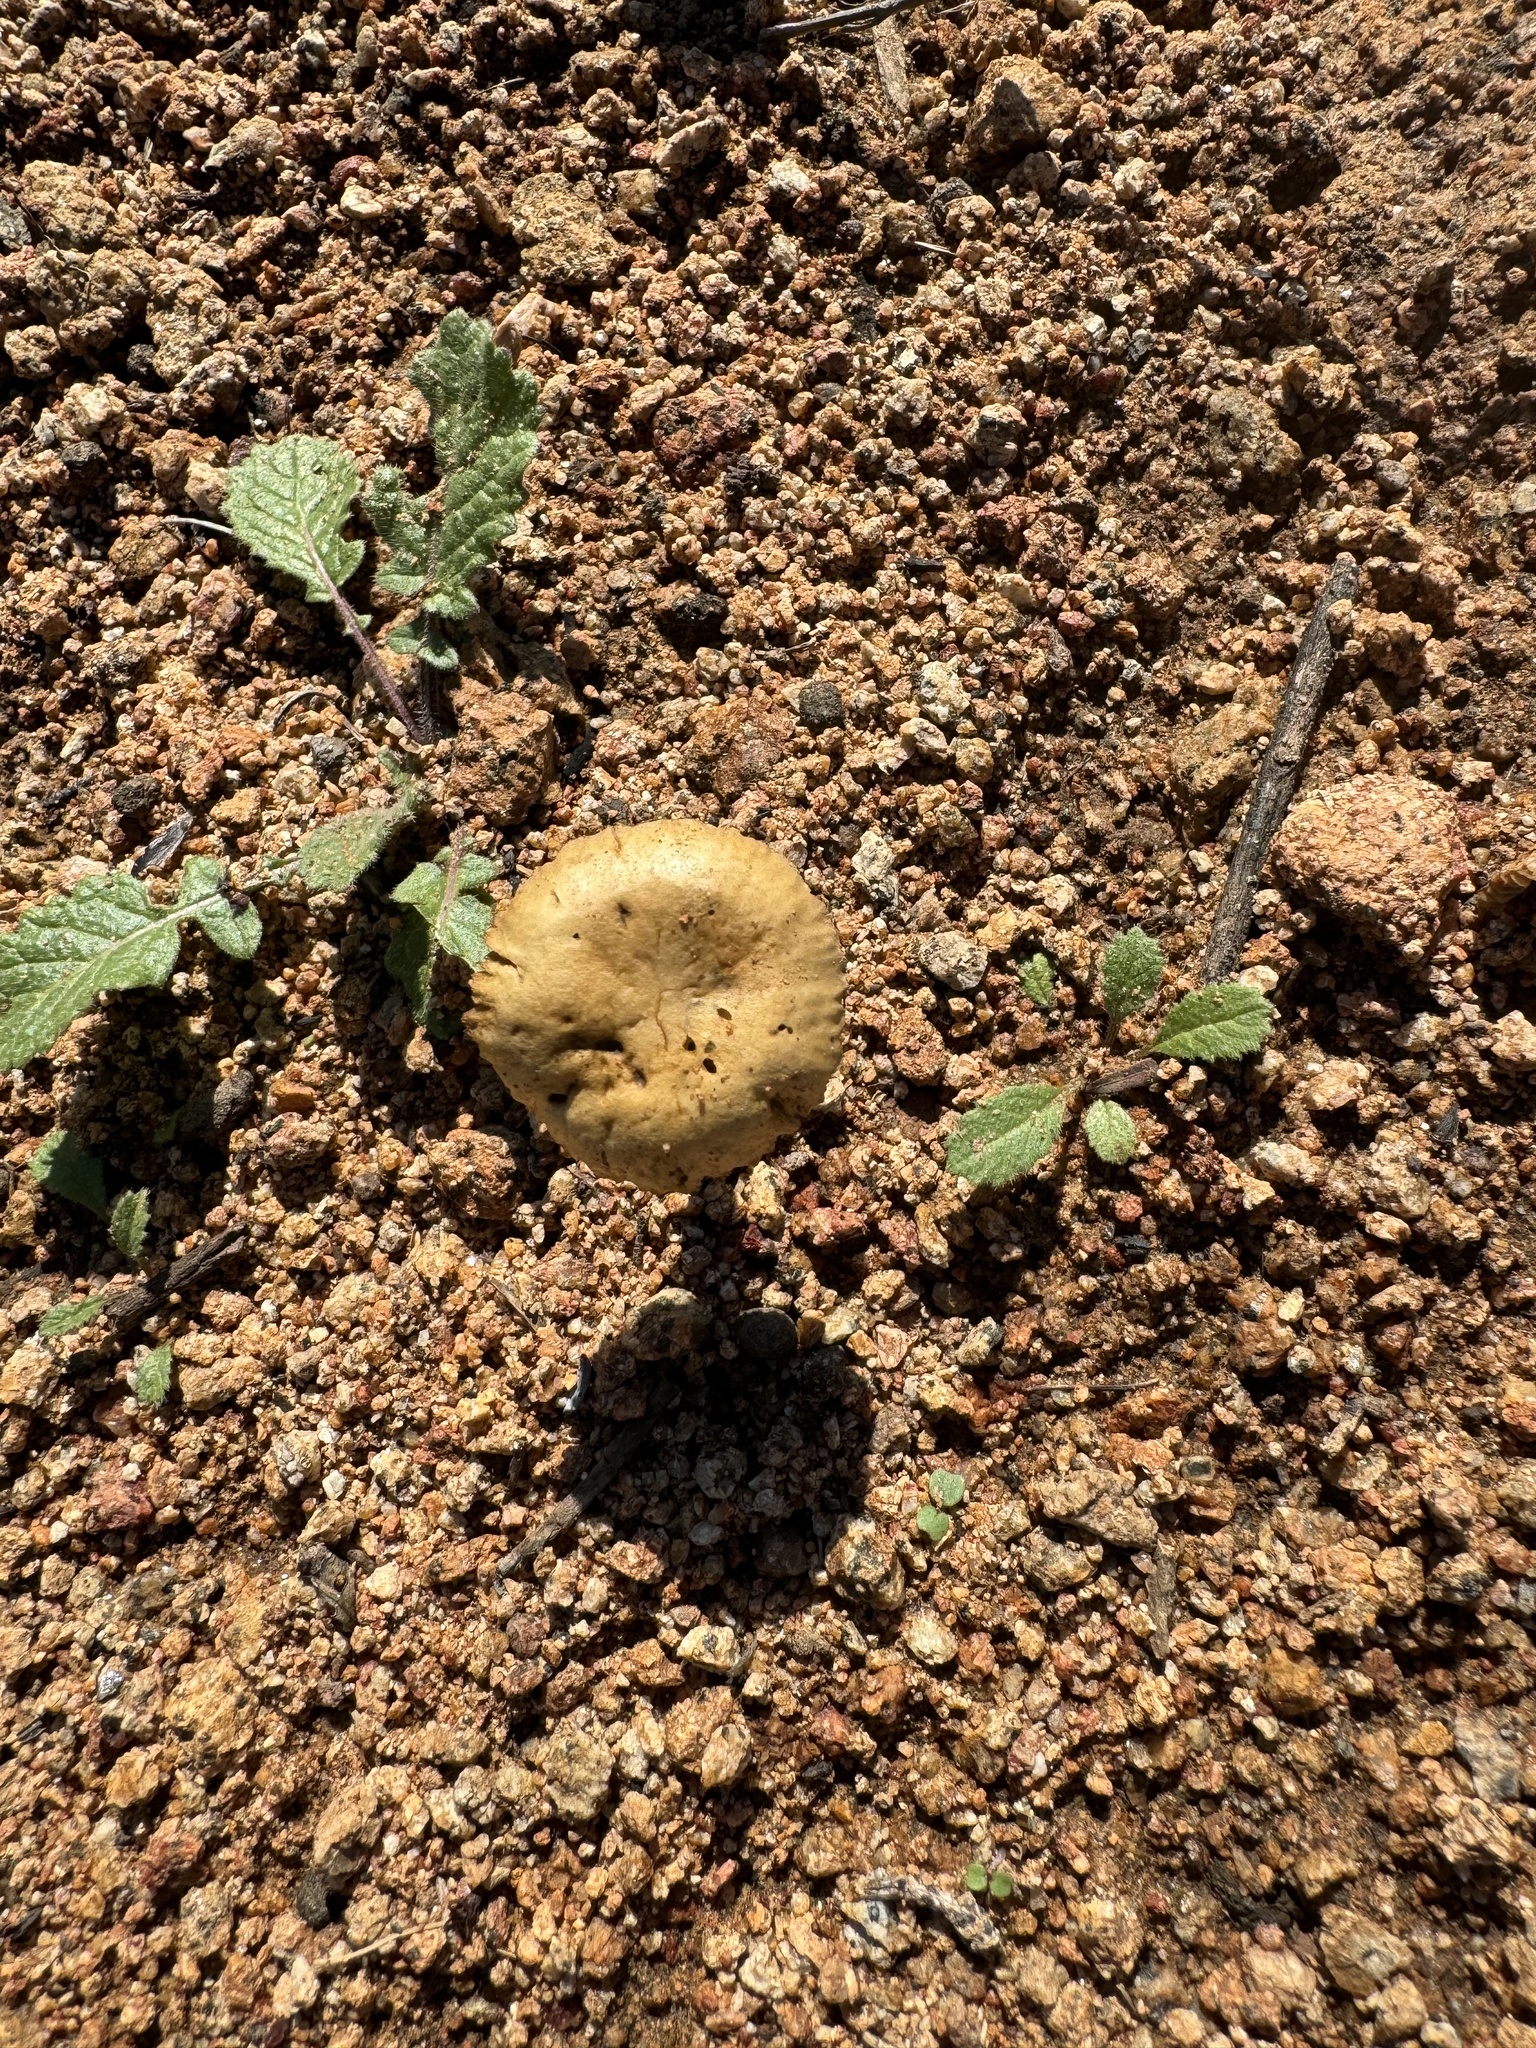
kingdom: Fungi
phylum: Basidiomycota
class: Agaricomycetes
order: Agaricales
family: Strophariaceae
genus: Agrocybe
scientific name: Agrocybe pediades
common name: Common fieldcap
